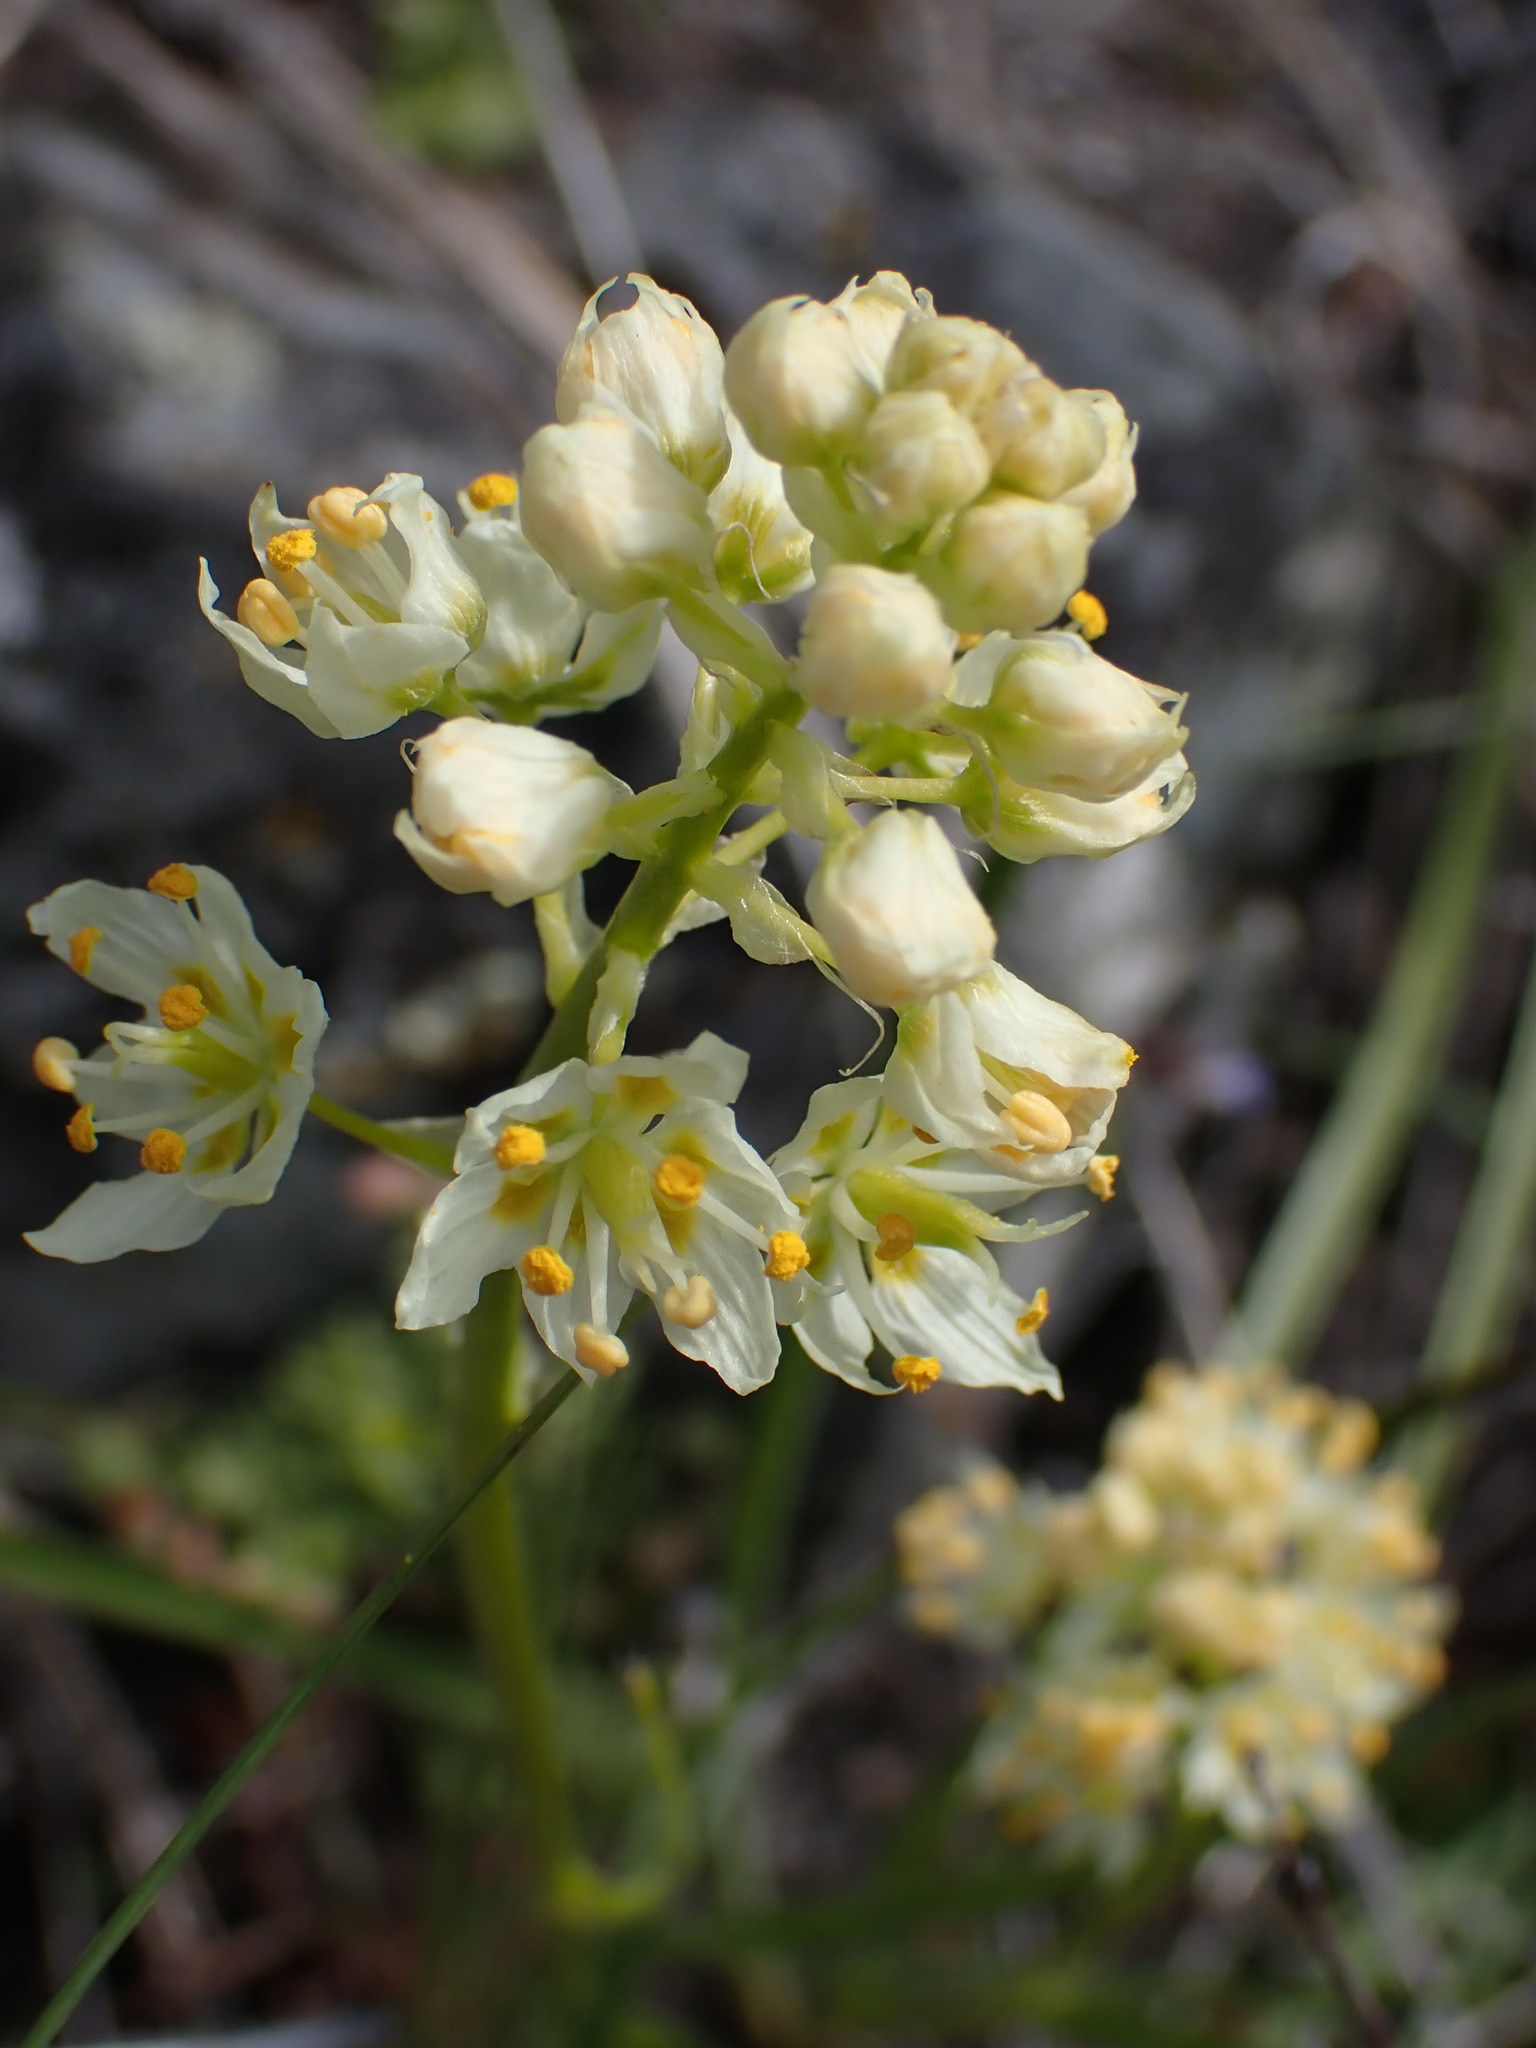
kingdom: Plantae
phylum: Tracheophyta
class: Liliopsida
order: Liliales
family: Melanthiaceae
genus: Toxicoscordion
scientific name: Toxicoscordion venenosum
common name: Meadow death camas
